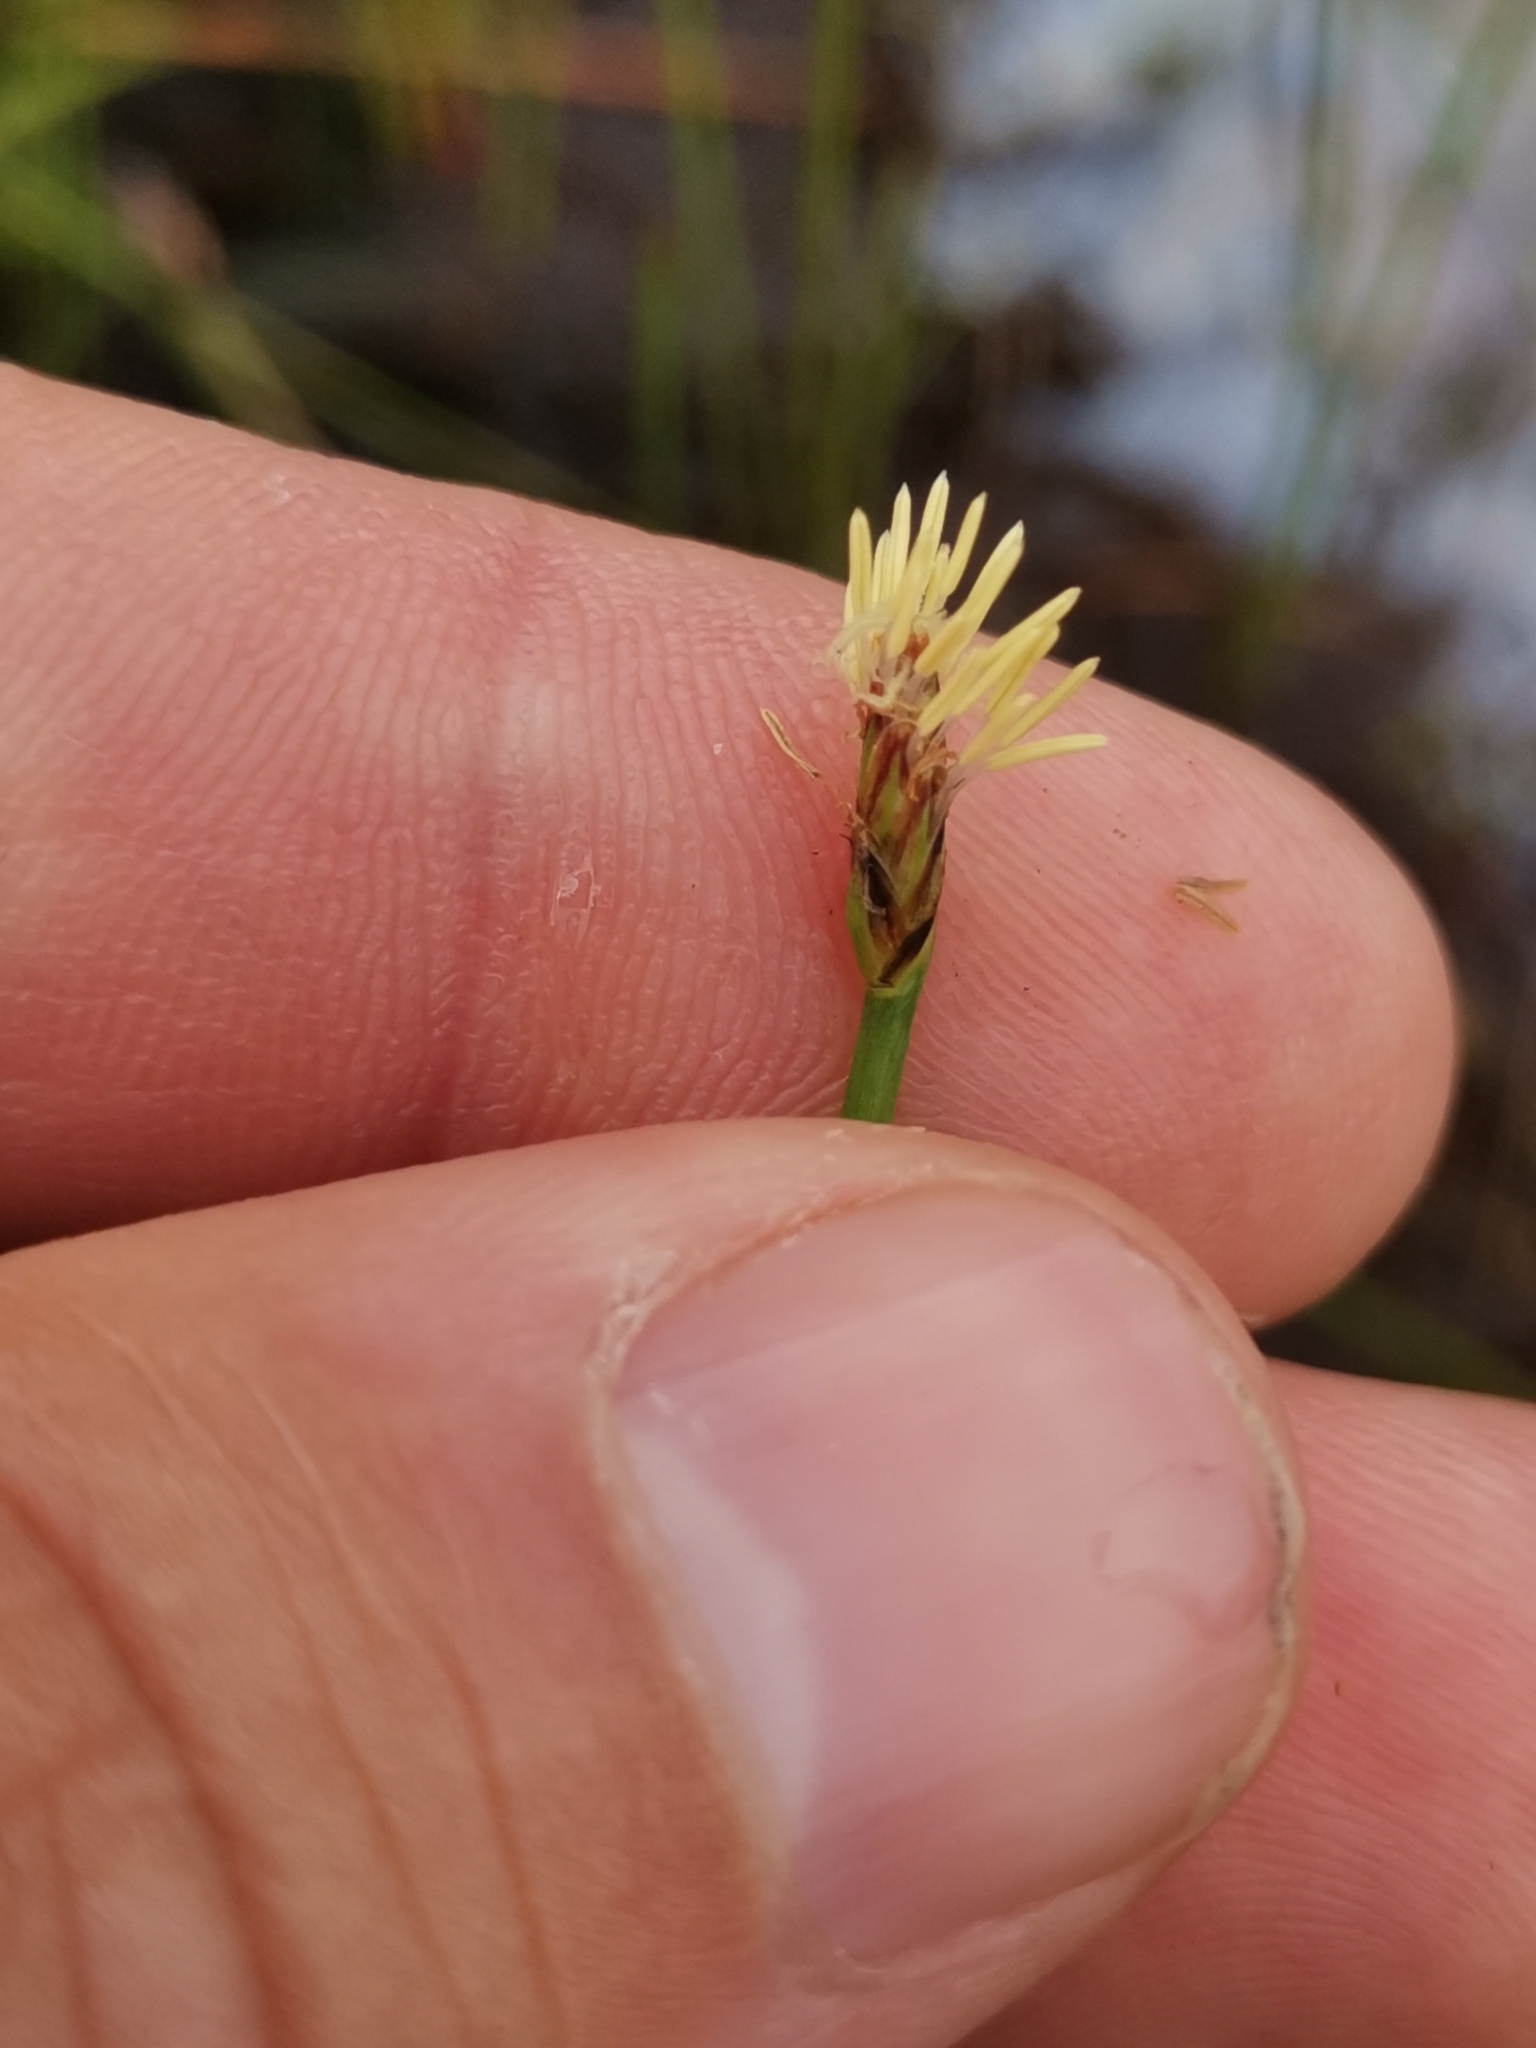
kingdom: Plantae
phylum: Tracheophyta
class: Liliopsida
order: Poales
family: Cyperaceae
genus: Eleocharis
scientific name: Eleocharis multicaulis
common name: Many-stalked spike-rush
